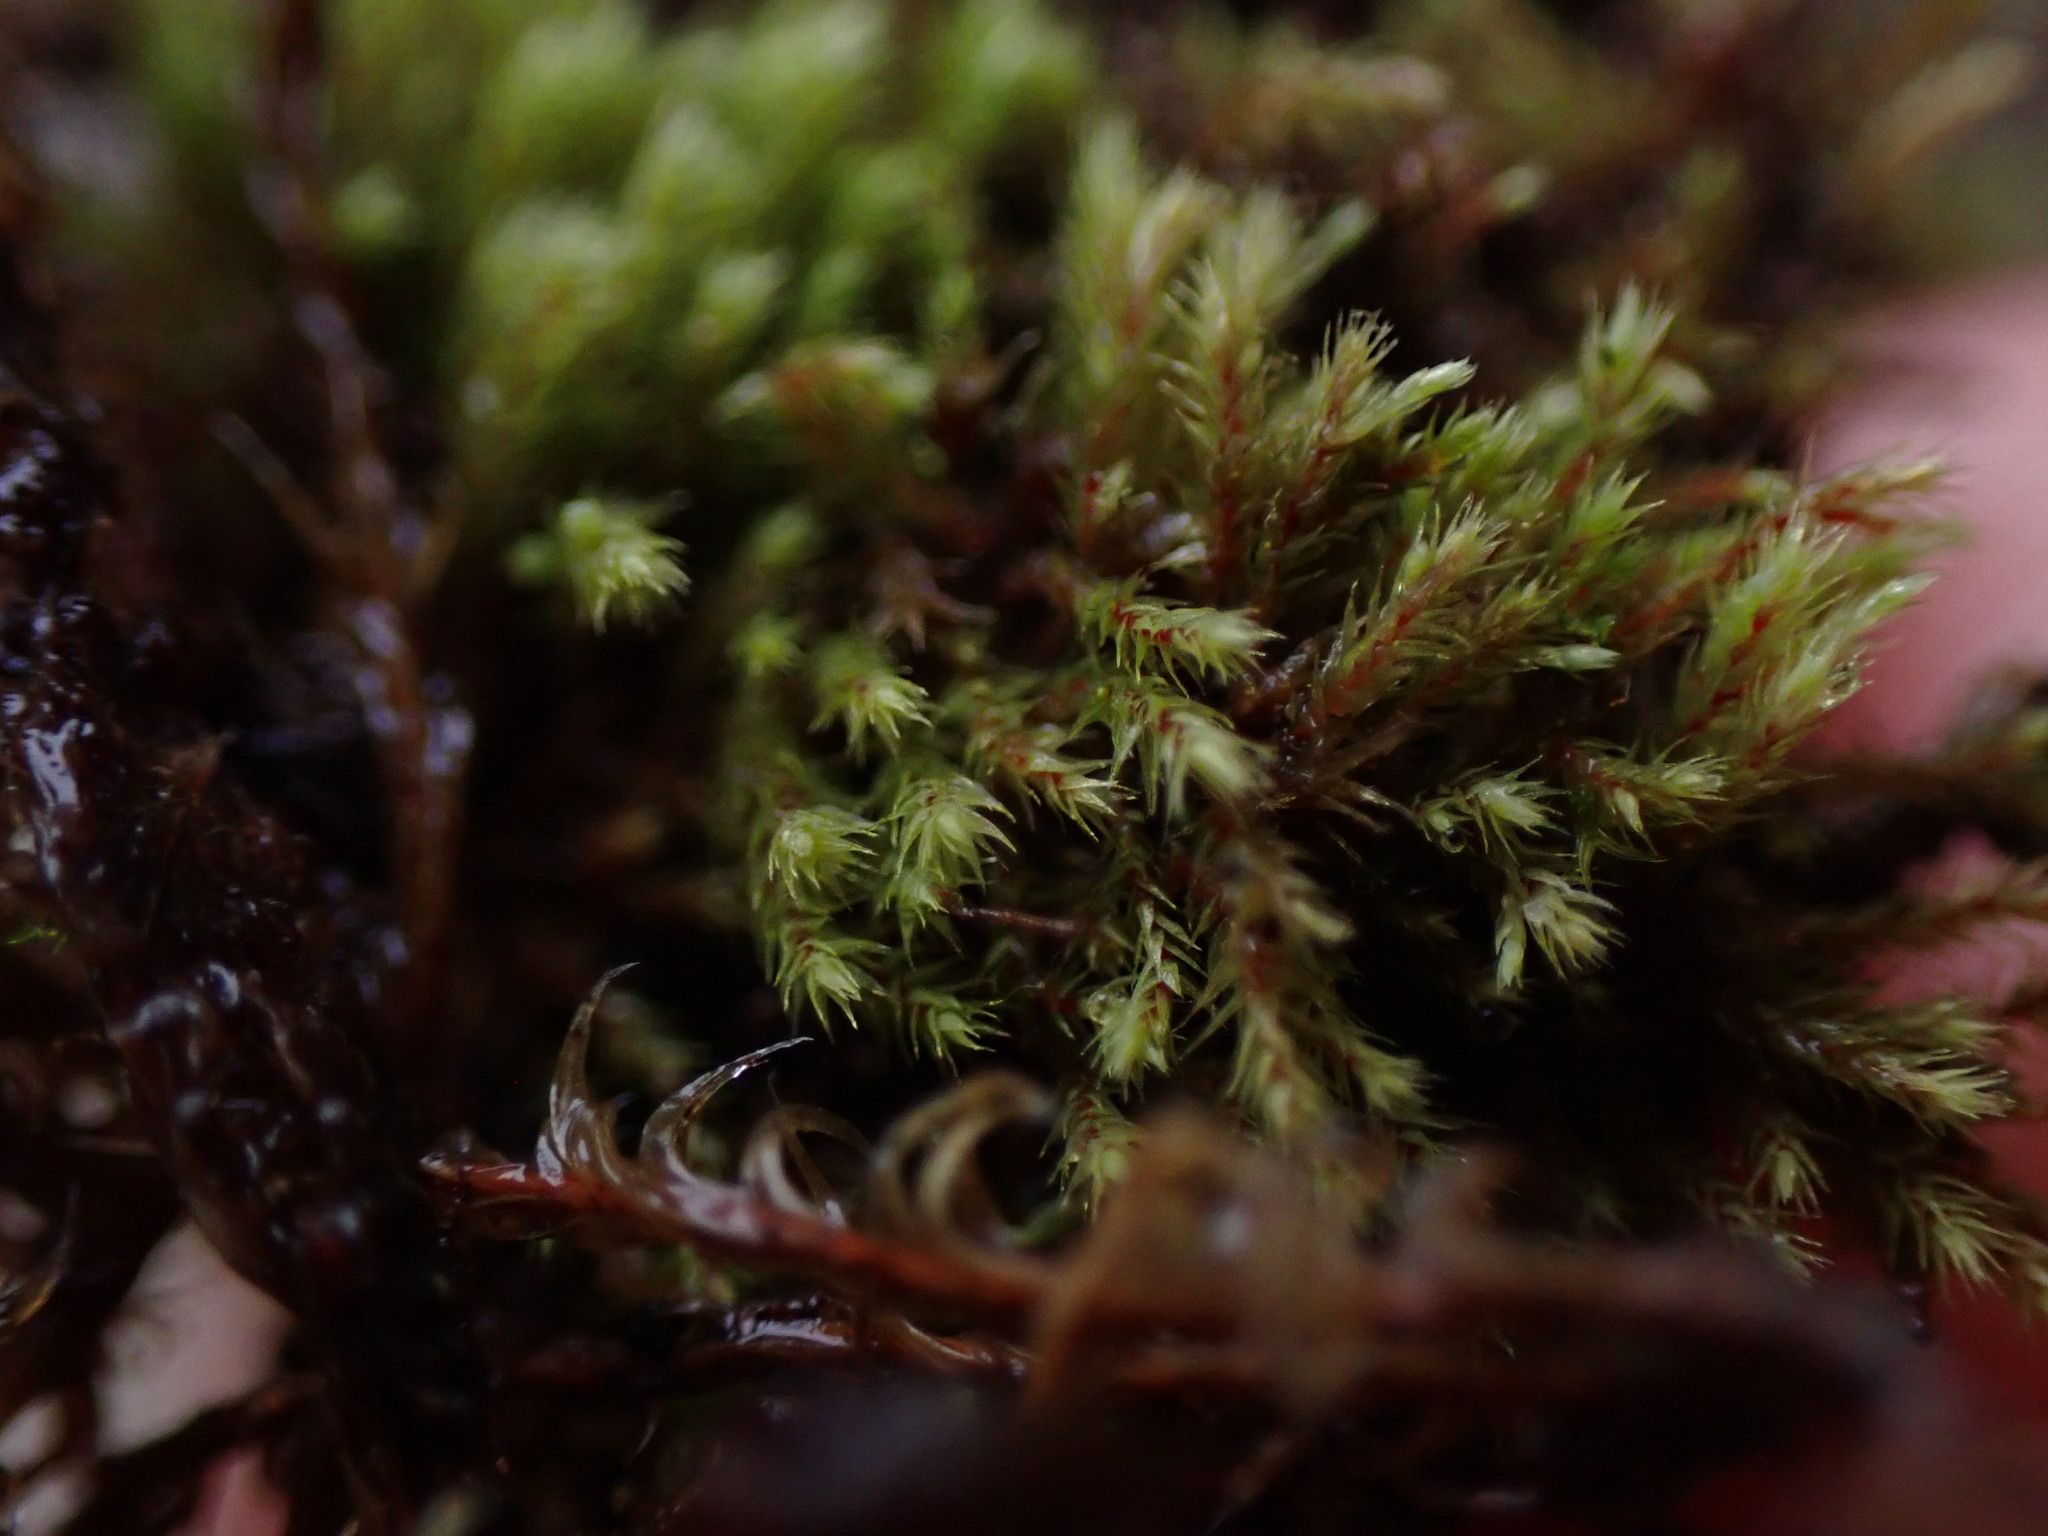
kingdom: Plantae
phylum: Bryophyta
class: Bryopsida
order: Bartramiales
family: Bartramiaceae
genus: Philonotis
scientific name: Philonotis fontana
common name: Fountain apple-moss
